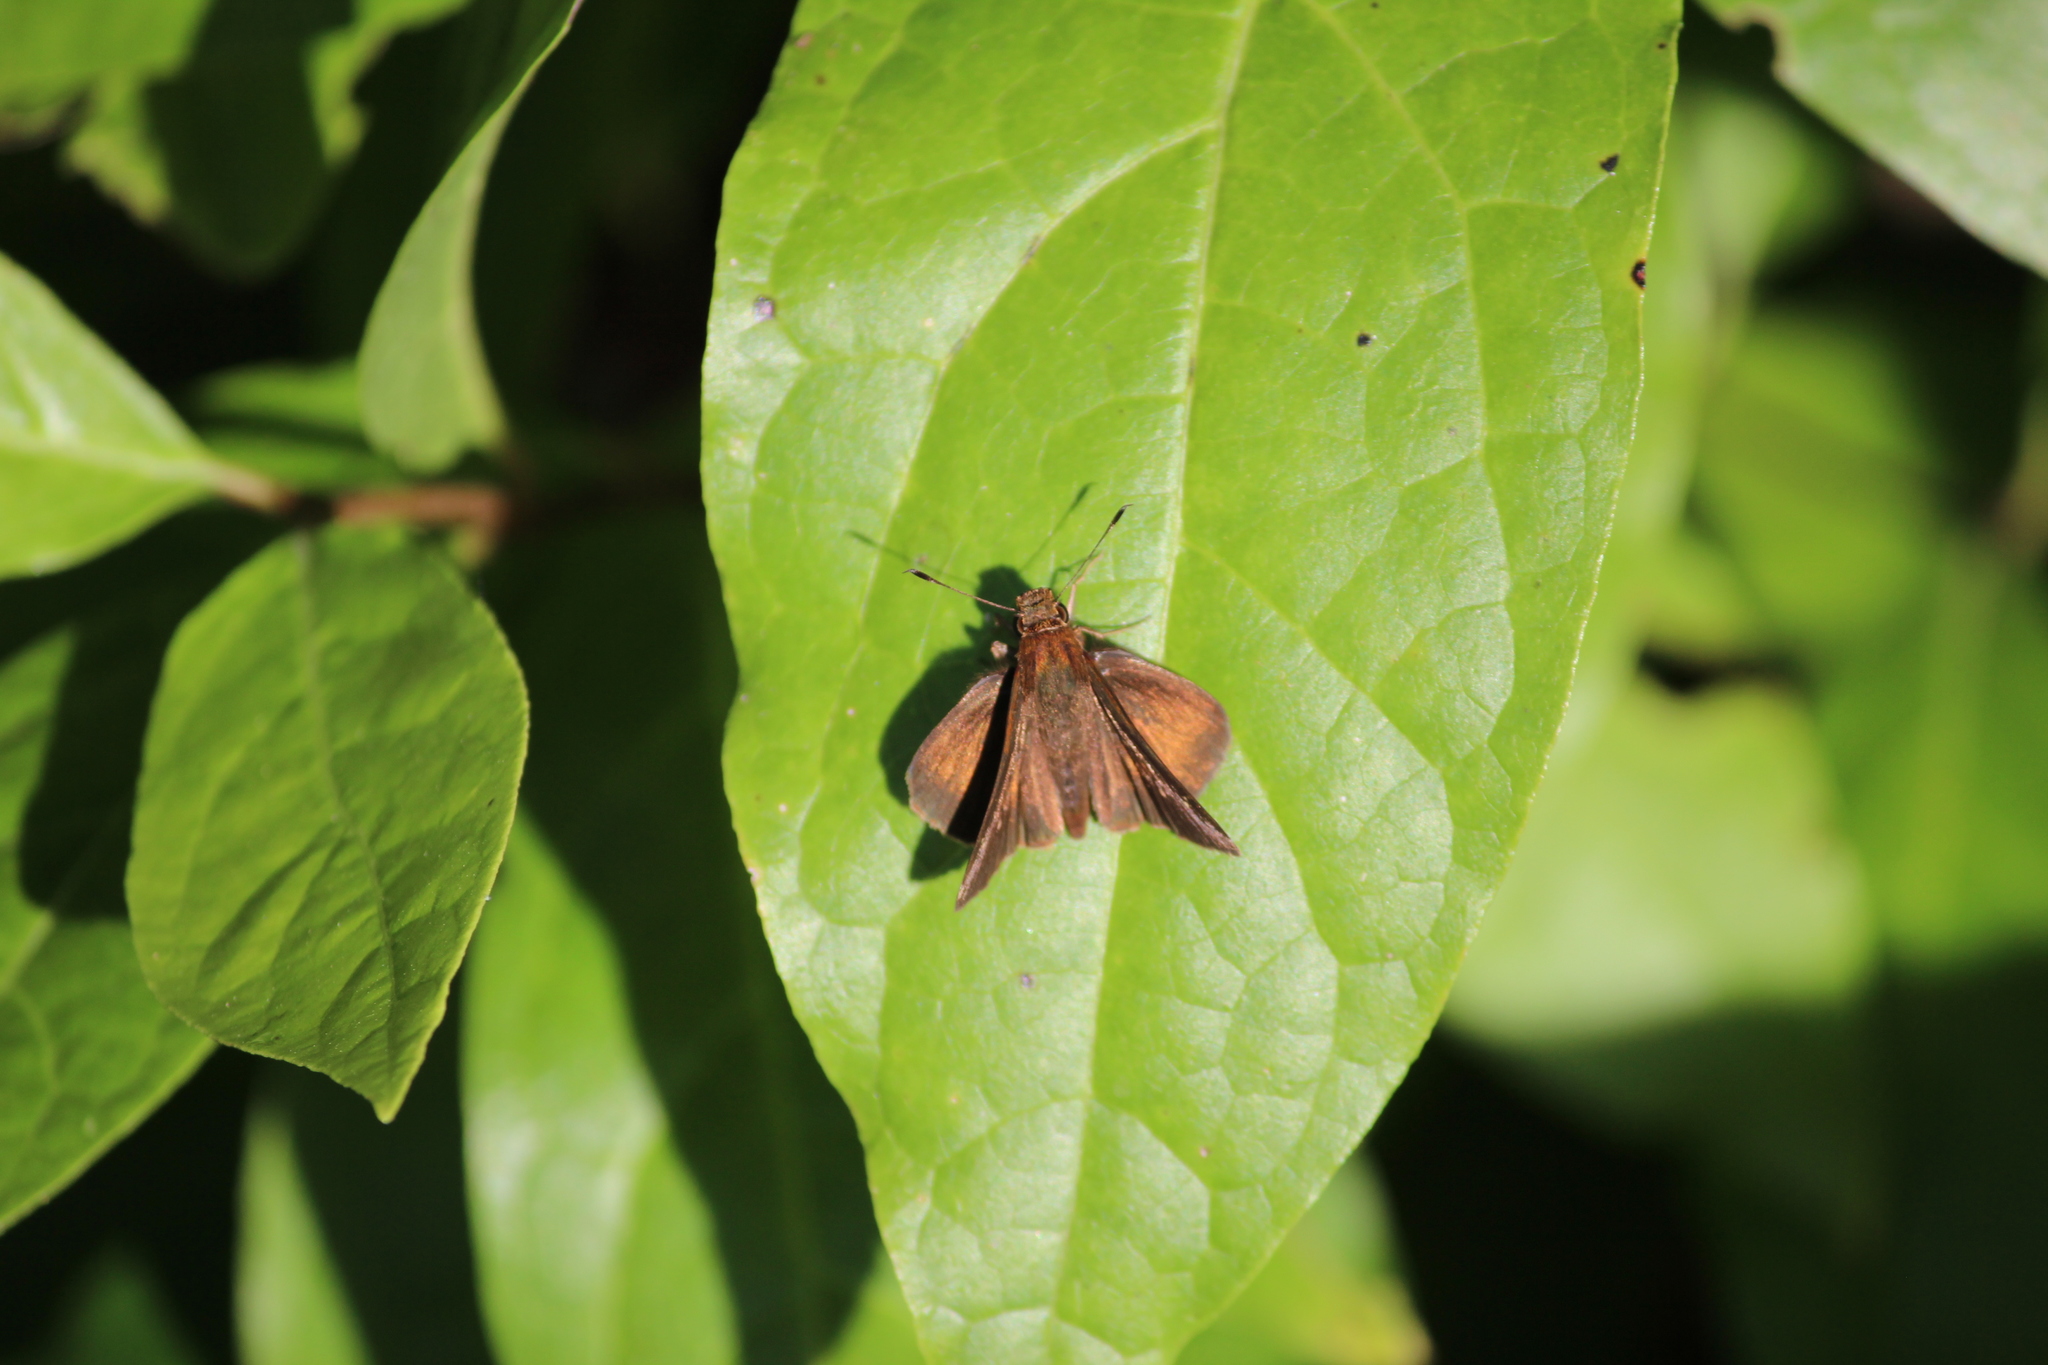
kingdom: Animalia
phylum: Arthropoda
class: Insecta
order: Lepidoptera
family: Hesperiidae
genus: Euphyes
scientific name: Euphyes vestris
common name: Dun skipper
